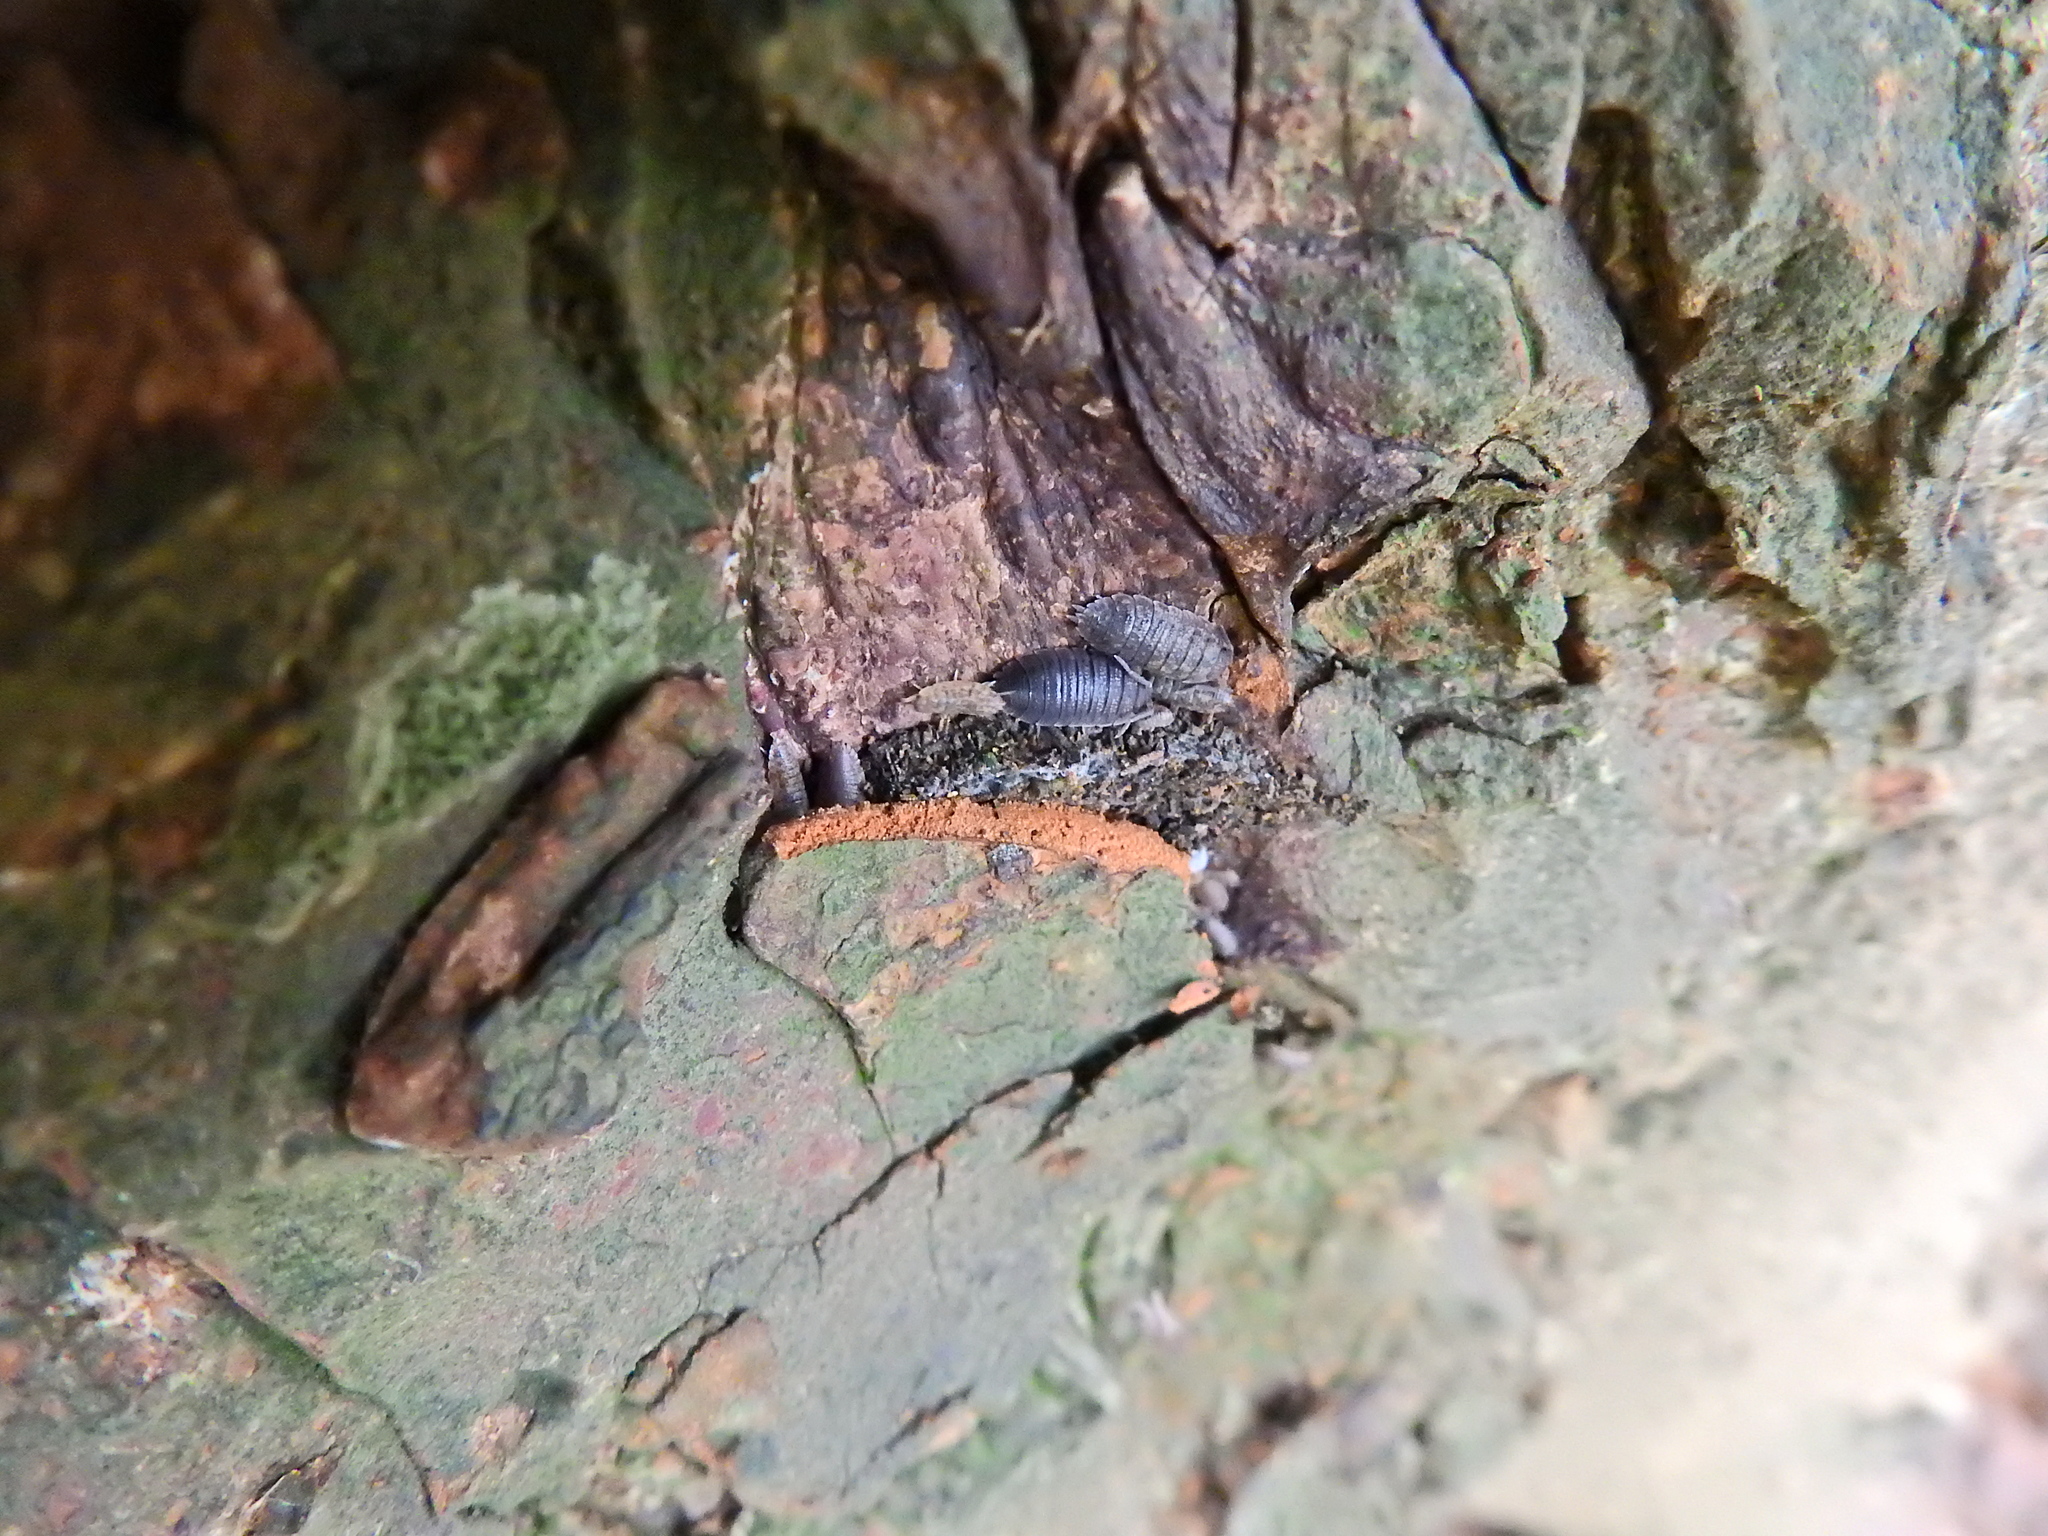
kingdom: Animalia
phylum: Arthropoda
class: Malacostraca
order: Isopoda
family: Porcellionidae
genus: Porcellio
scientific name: Porcellio scaber
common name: Common rough woodlouse
